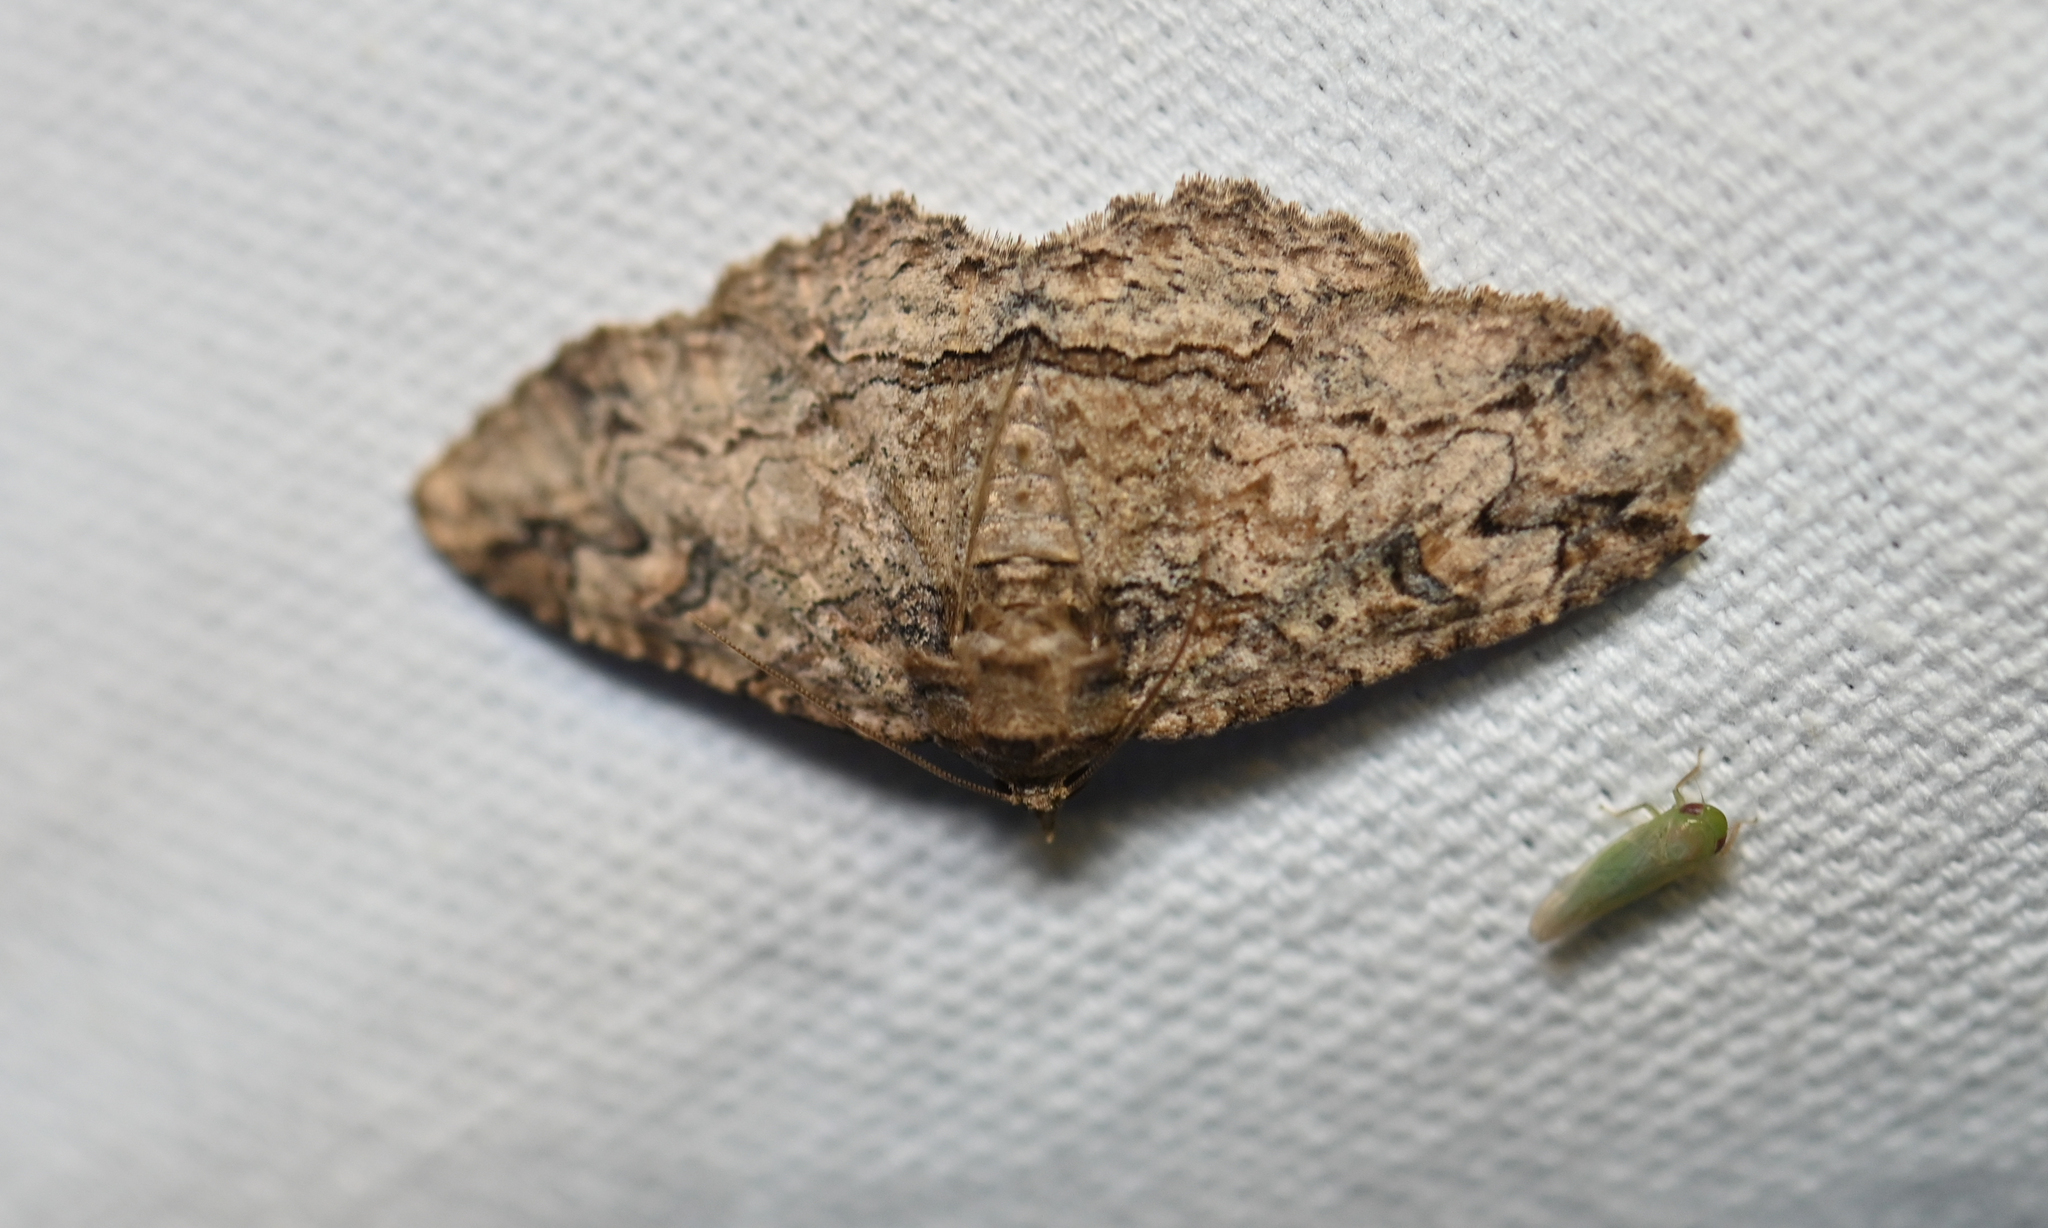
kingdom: Animalia
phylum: Arthropoda
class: Insecta
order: Lepidoptera
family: Erebidae
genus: Zale
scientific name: Zale galbanata
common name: Maple zale
